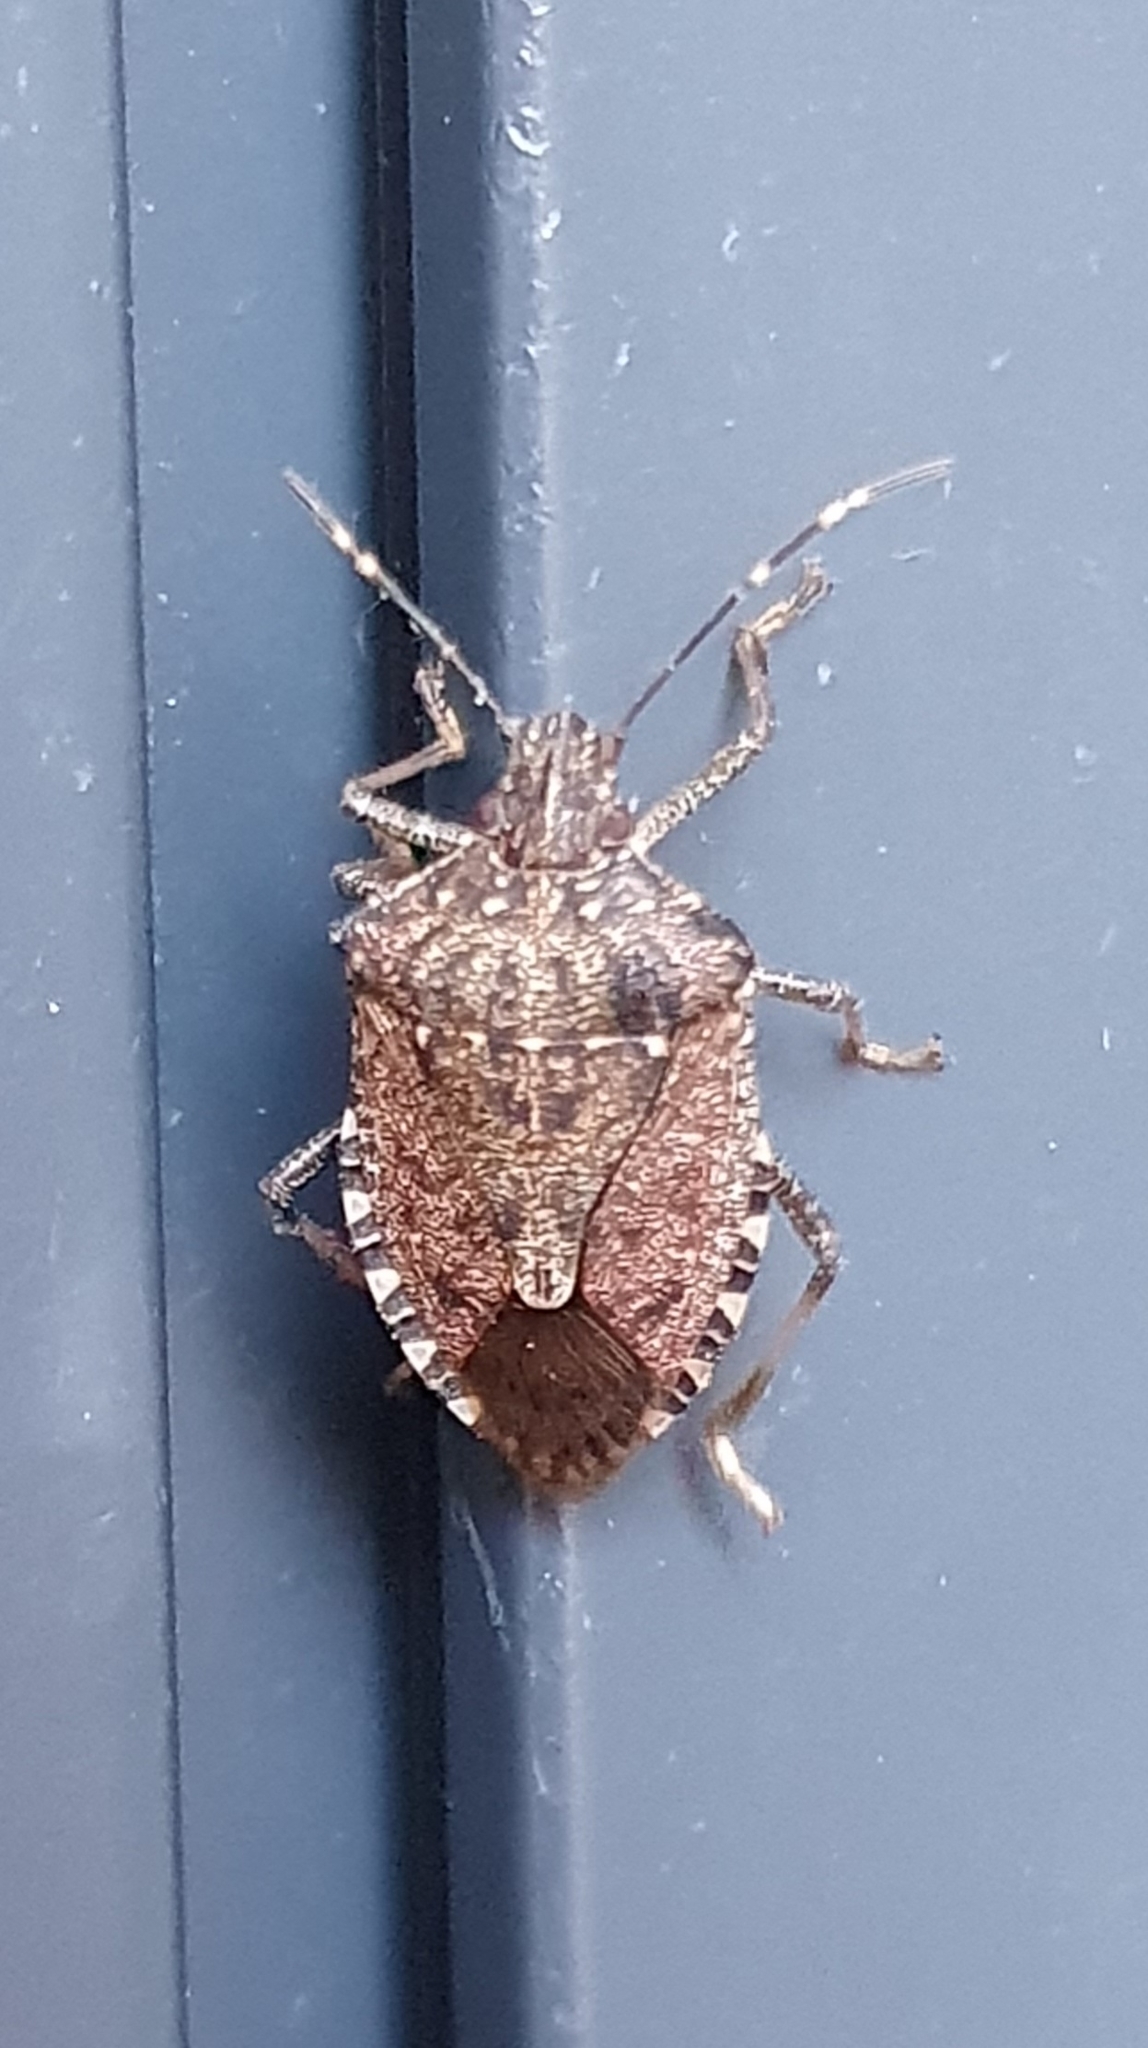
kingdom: Animalia
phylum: Arthropoda
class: Insecta
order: Hemiptera
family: Pentatomidae
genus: Halyomorpha
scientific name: Halyomorpha halys
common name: Brown marmorated stink bug
